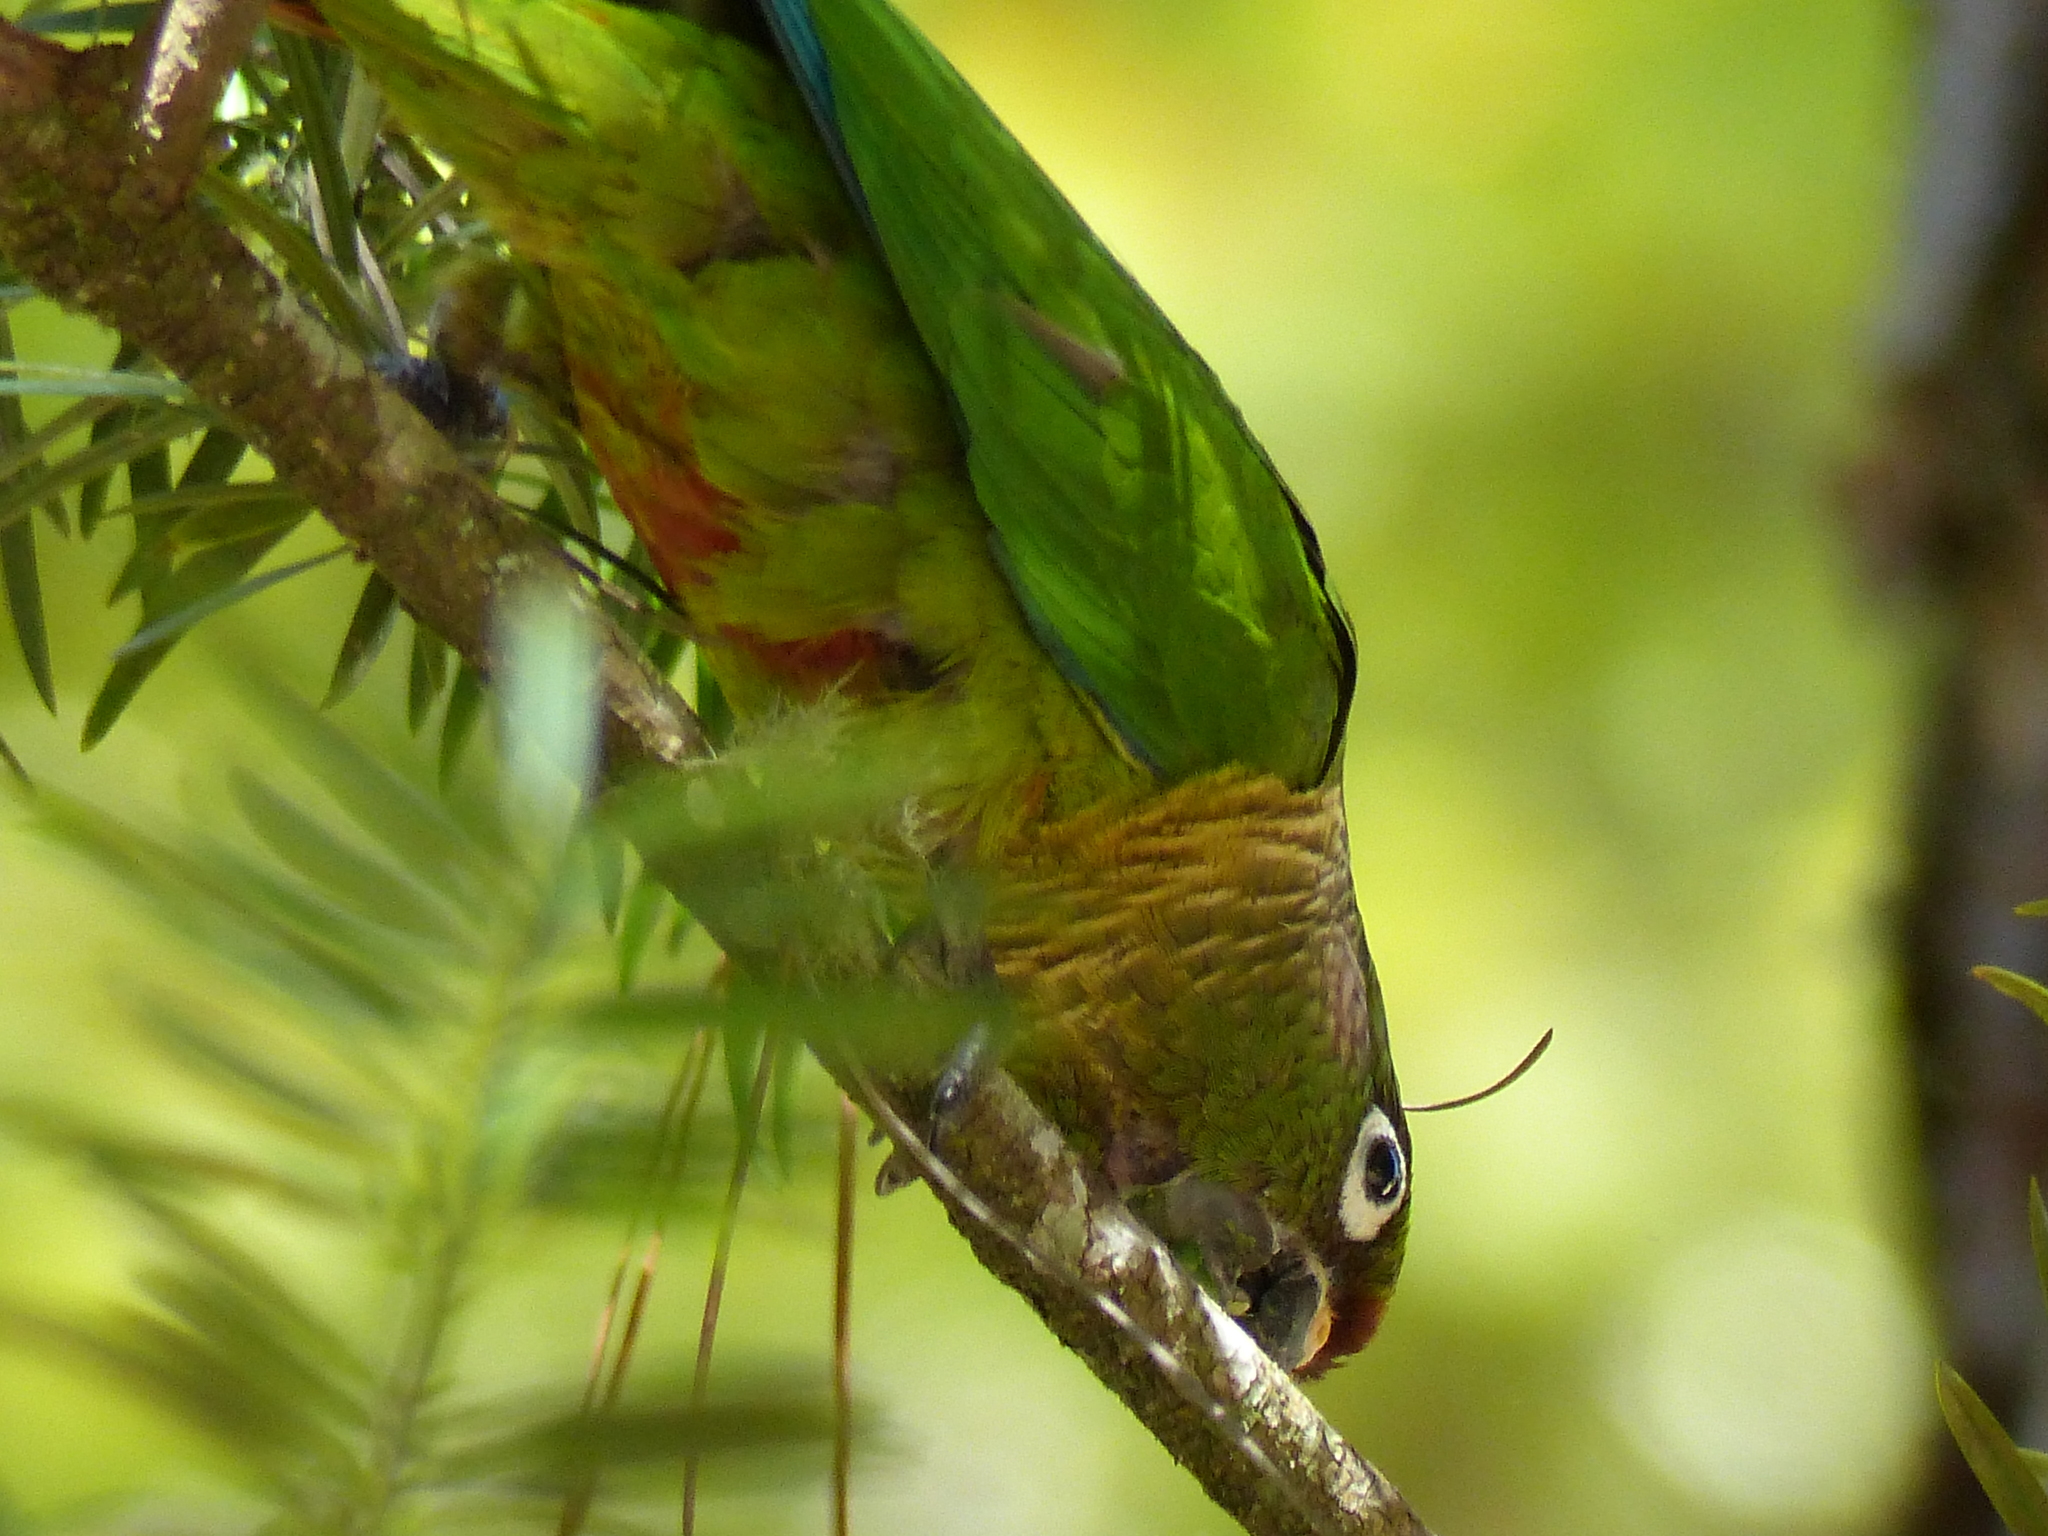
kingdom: Animalia
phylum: Chordata
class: Aves
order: Psittaciformes
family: Psittacidae
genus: Pyrrhura
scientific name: Pyrrhura frontalis
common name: Maroon-bellied parakeet
